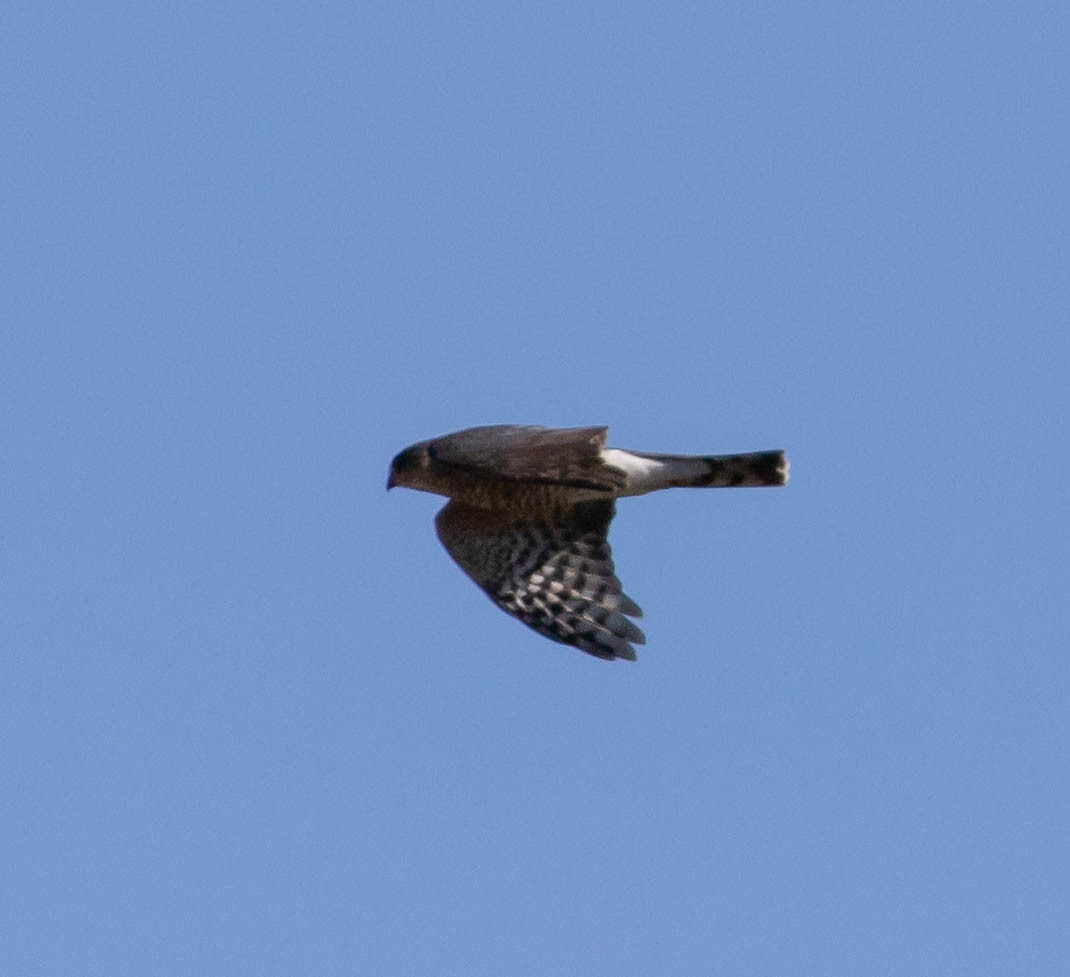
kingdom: Animalia
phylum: Chordata
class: Aves
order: Accipitriformes
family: Accipitridae
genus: Accipiter
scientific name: Accipiter striatus
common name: Sharp-shinned hawk
